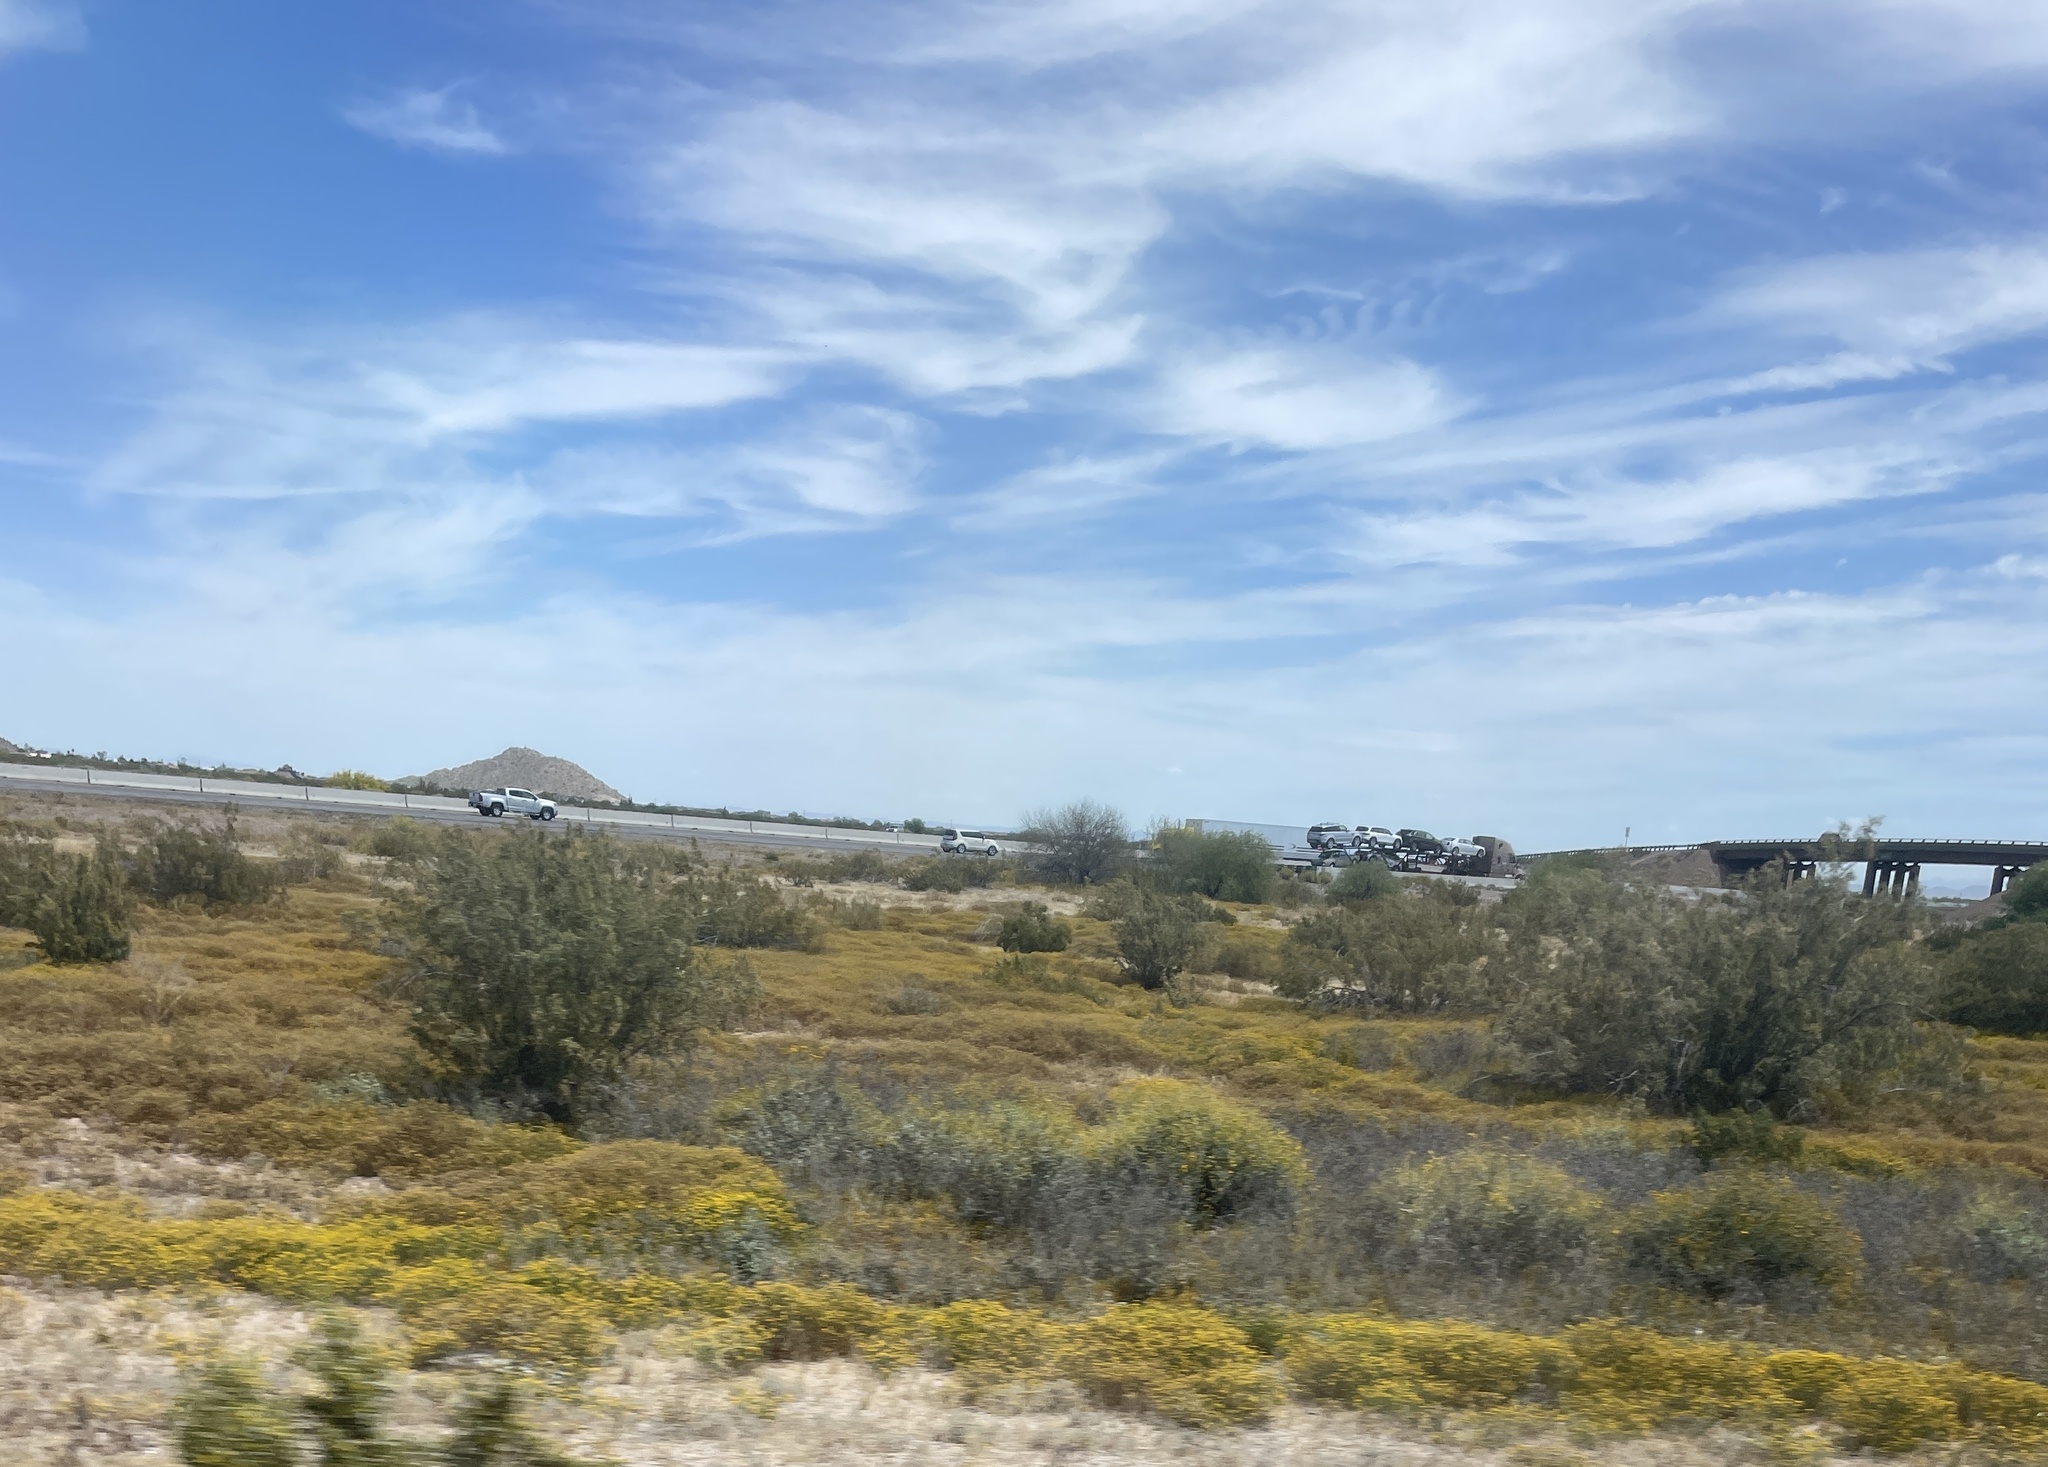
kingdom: Plantae
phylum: Tracheophyta
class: Magnoliopsida
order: Asterales
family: Asteraceae
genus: Oncosiphon
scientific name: Oncosiphon pilulifer
